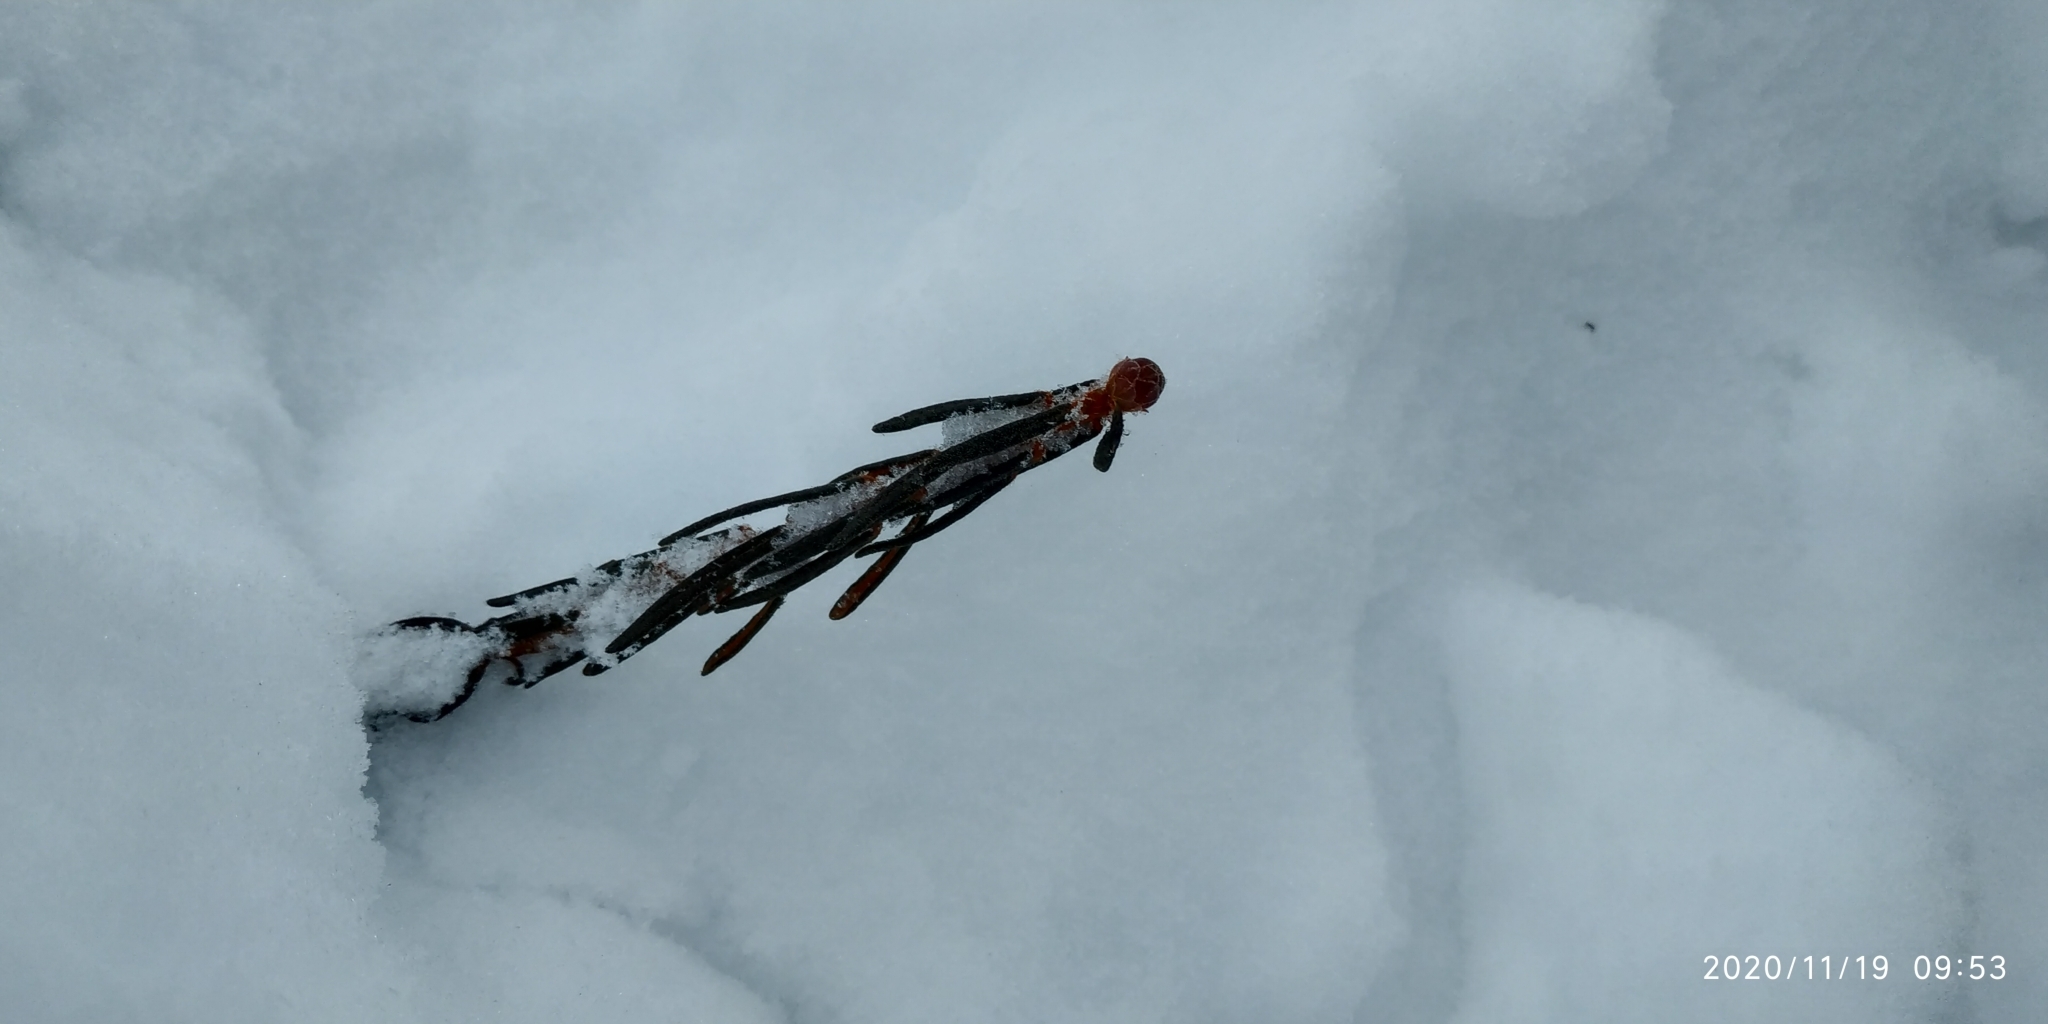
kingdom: Plantae
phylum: Tracheophyta
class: Magnoliopsida
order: Ericales
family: Ericaceae
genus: Rhododendron
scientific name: Rhododendron tomentosum
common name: Marsh labrador tea
